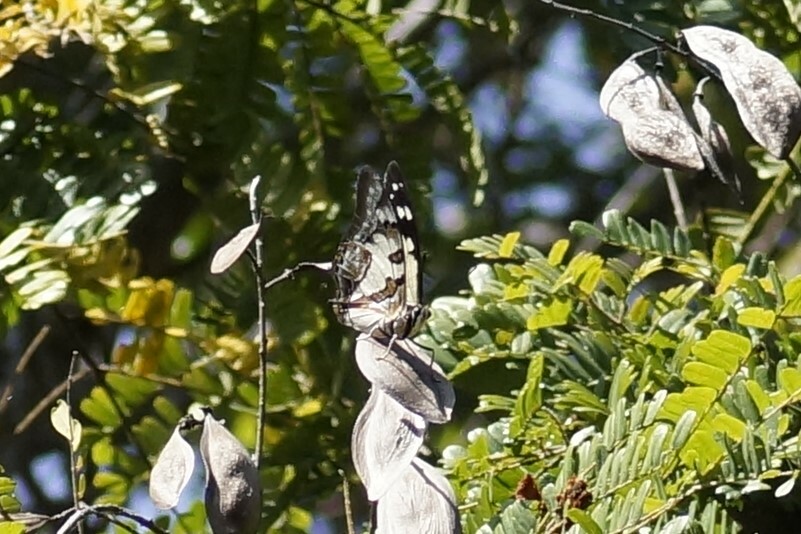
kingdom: Animalia
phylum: Arthropoda
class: Insecta
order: Lepidoptera
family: Nymphalidae
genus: Charaxes
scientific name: Charaxes
